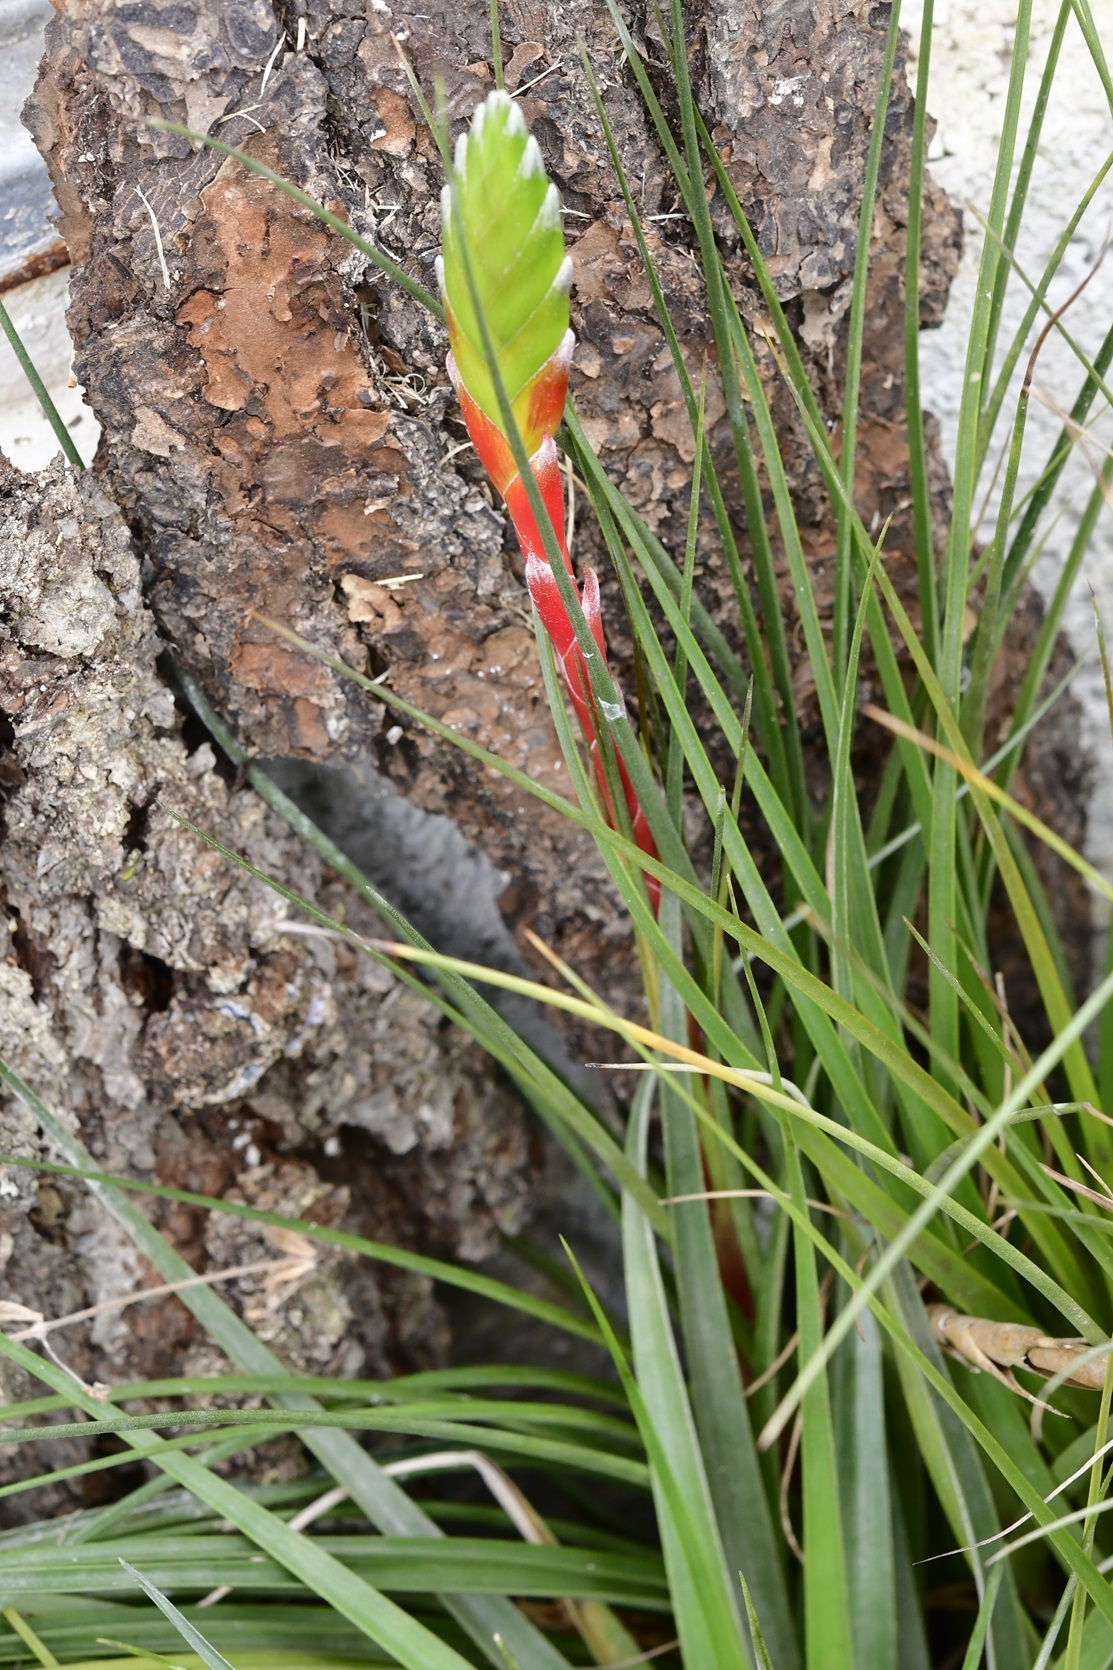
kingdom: Plantae
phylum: Tracheophyta
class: Liliopsida
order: Poales
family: Bromeliaceae
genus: Tillandsia
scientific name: Tillandsia tricolor
